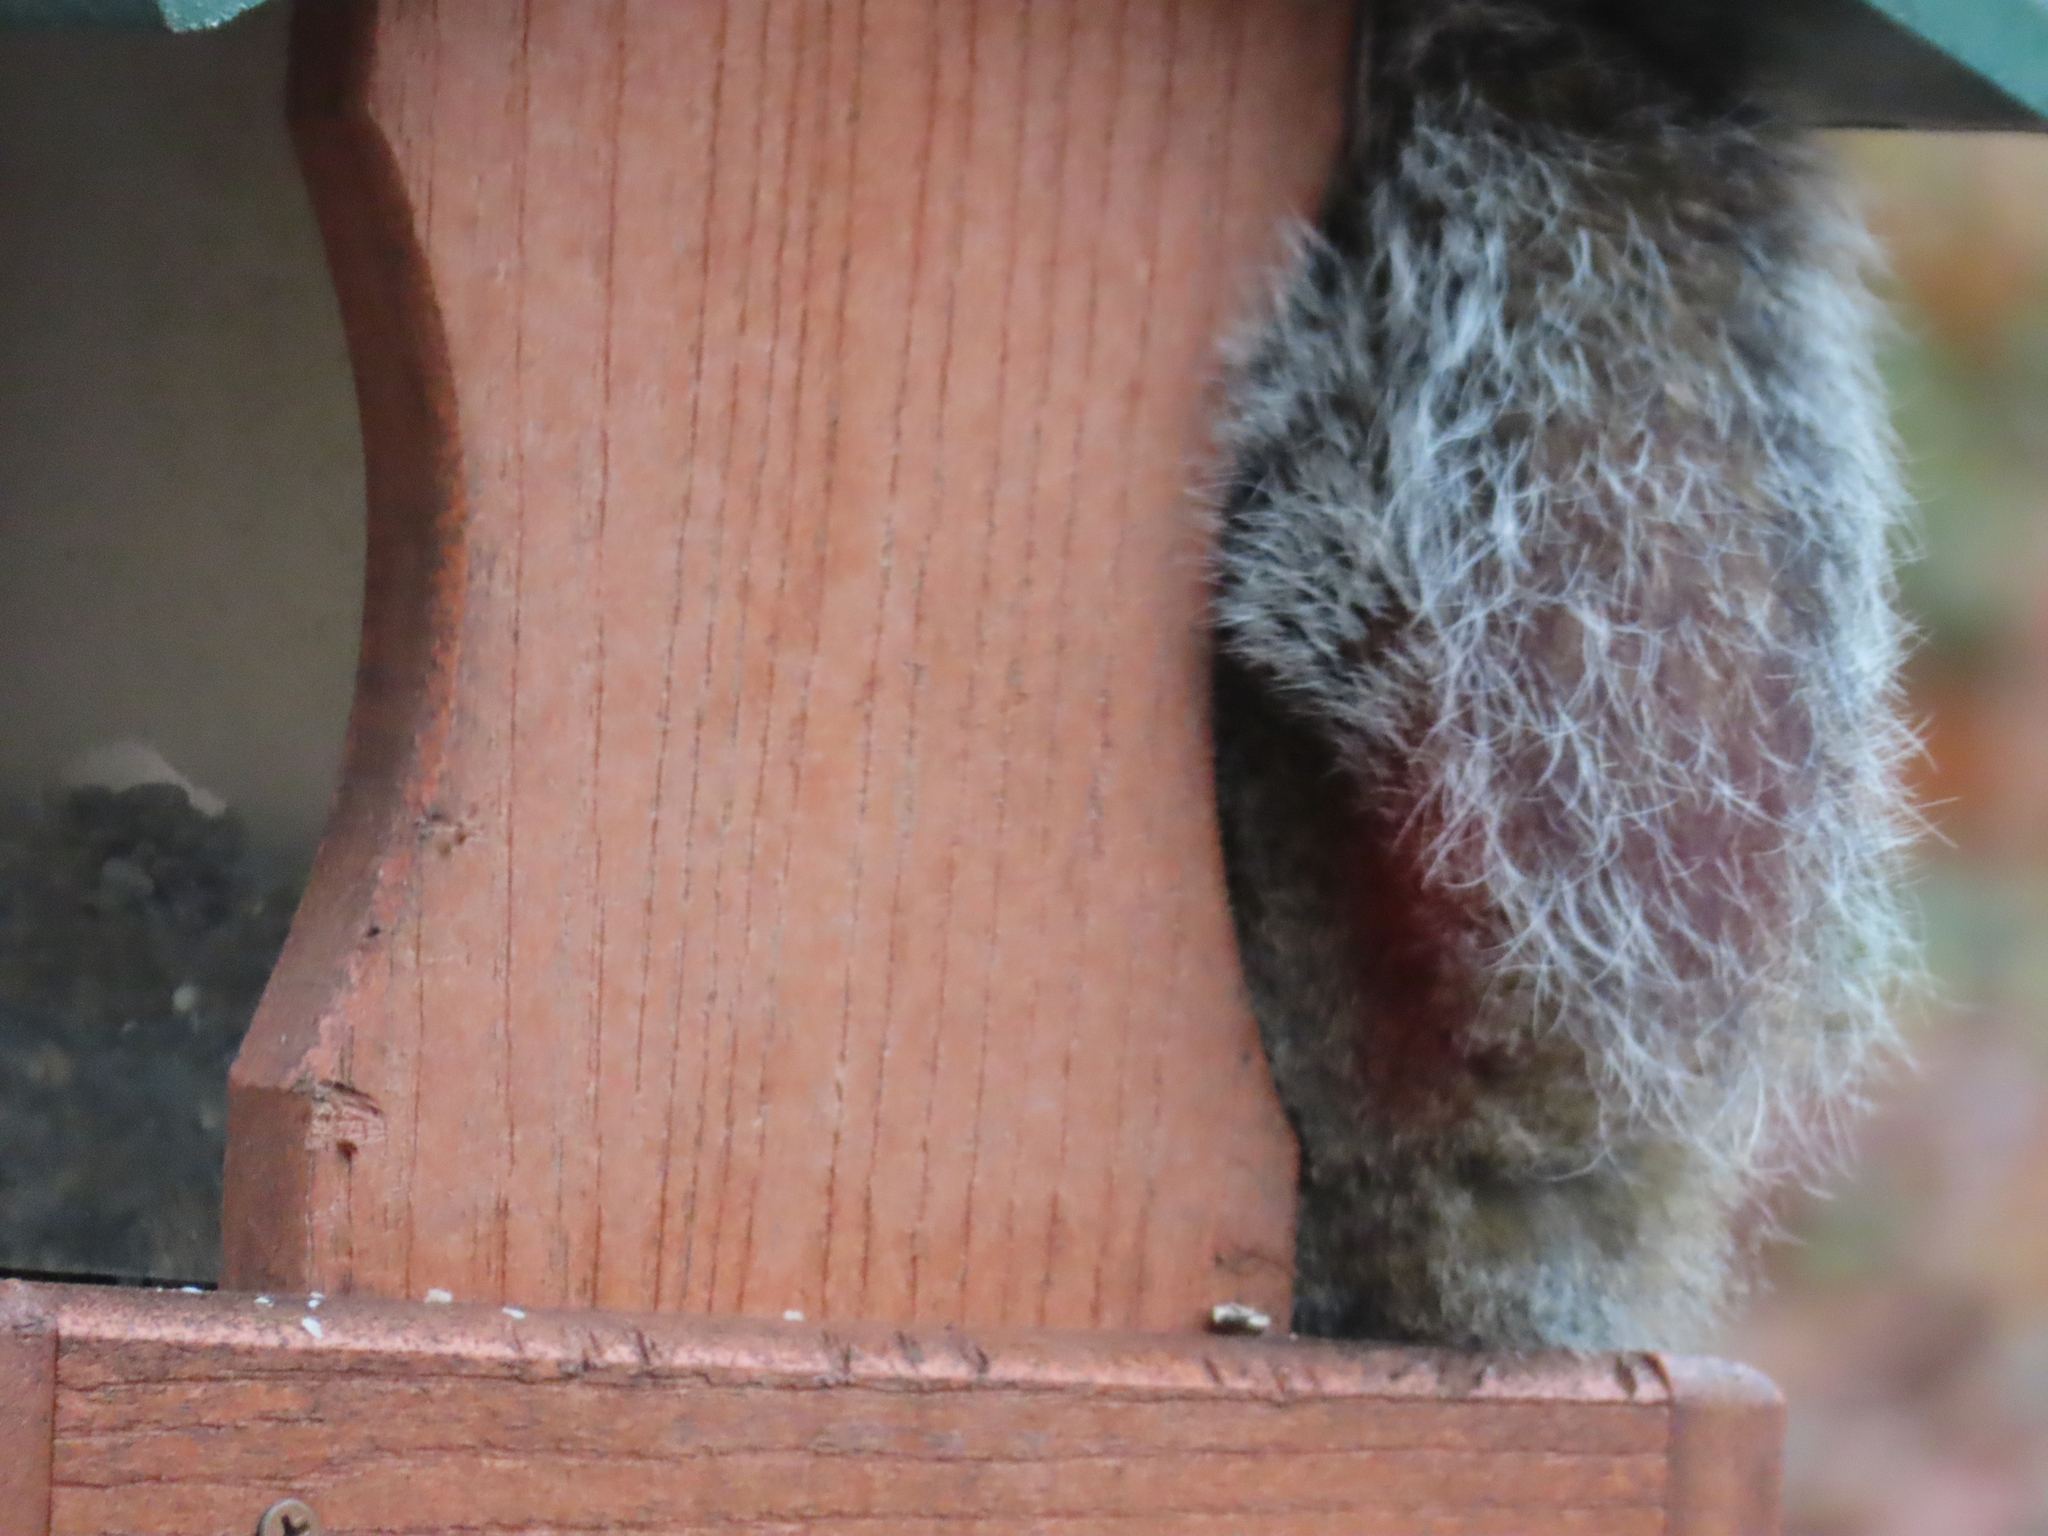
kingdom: Animalia
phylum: Chordata
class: Mammalia
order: Rodentia
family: Sciuridae
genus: Sciurus
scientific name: Sciurus carolinensis
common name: Eastern gray squirrel
